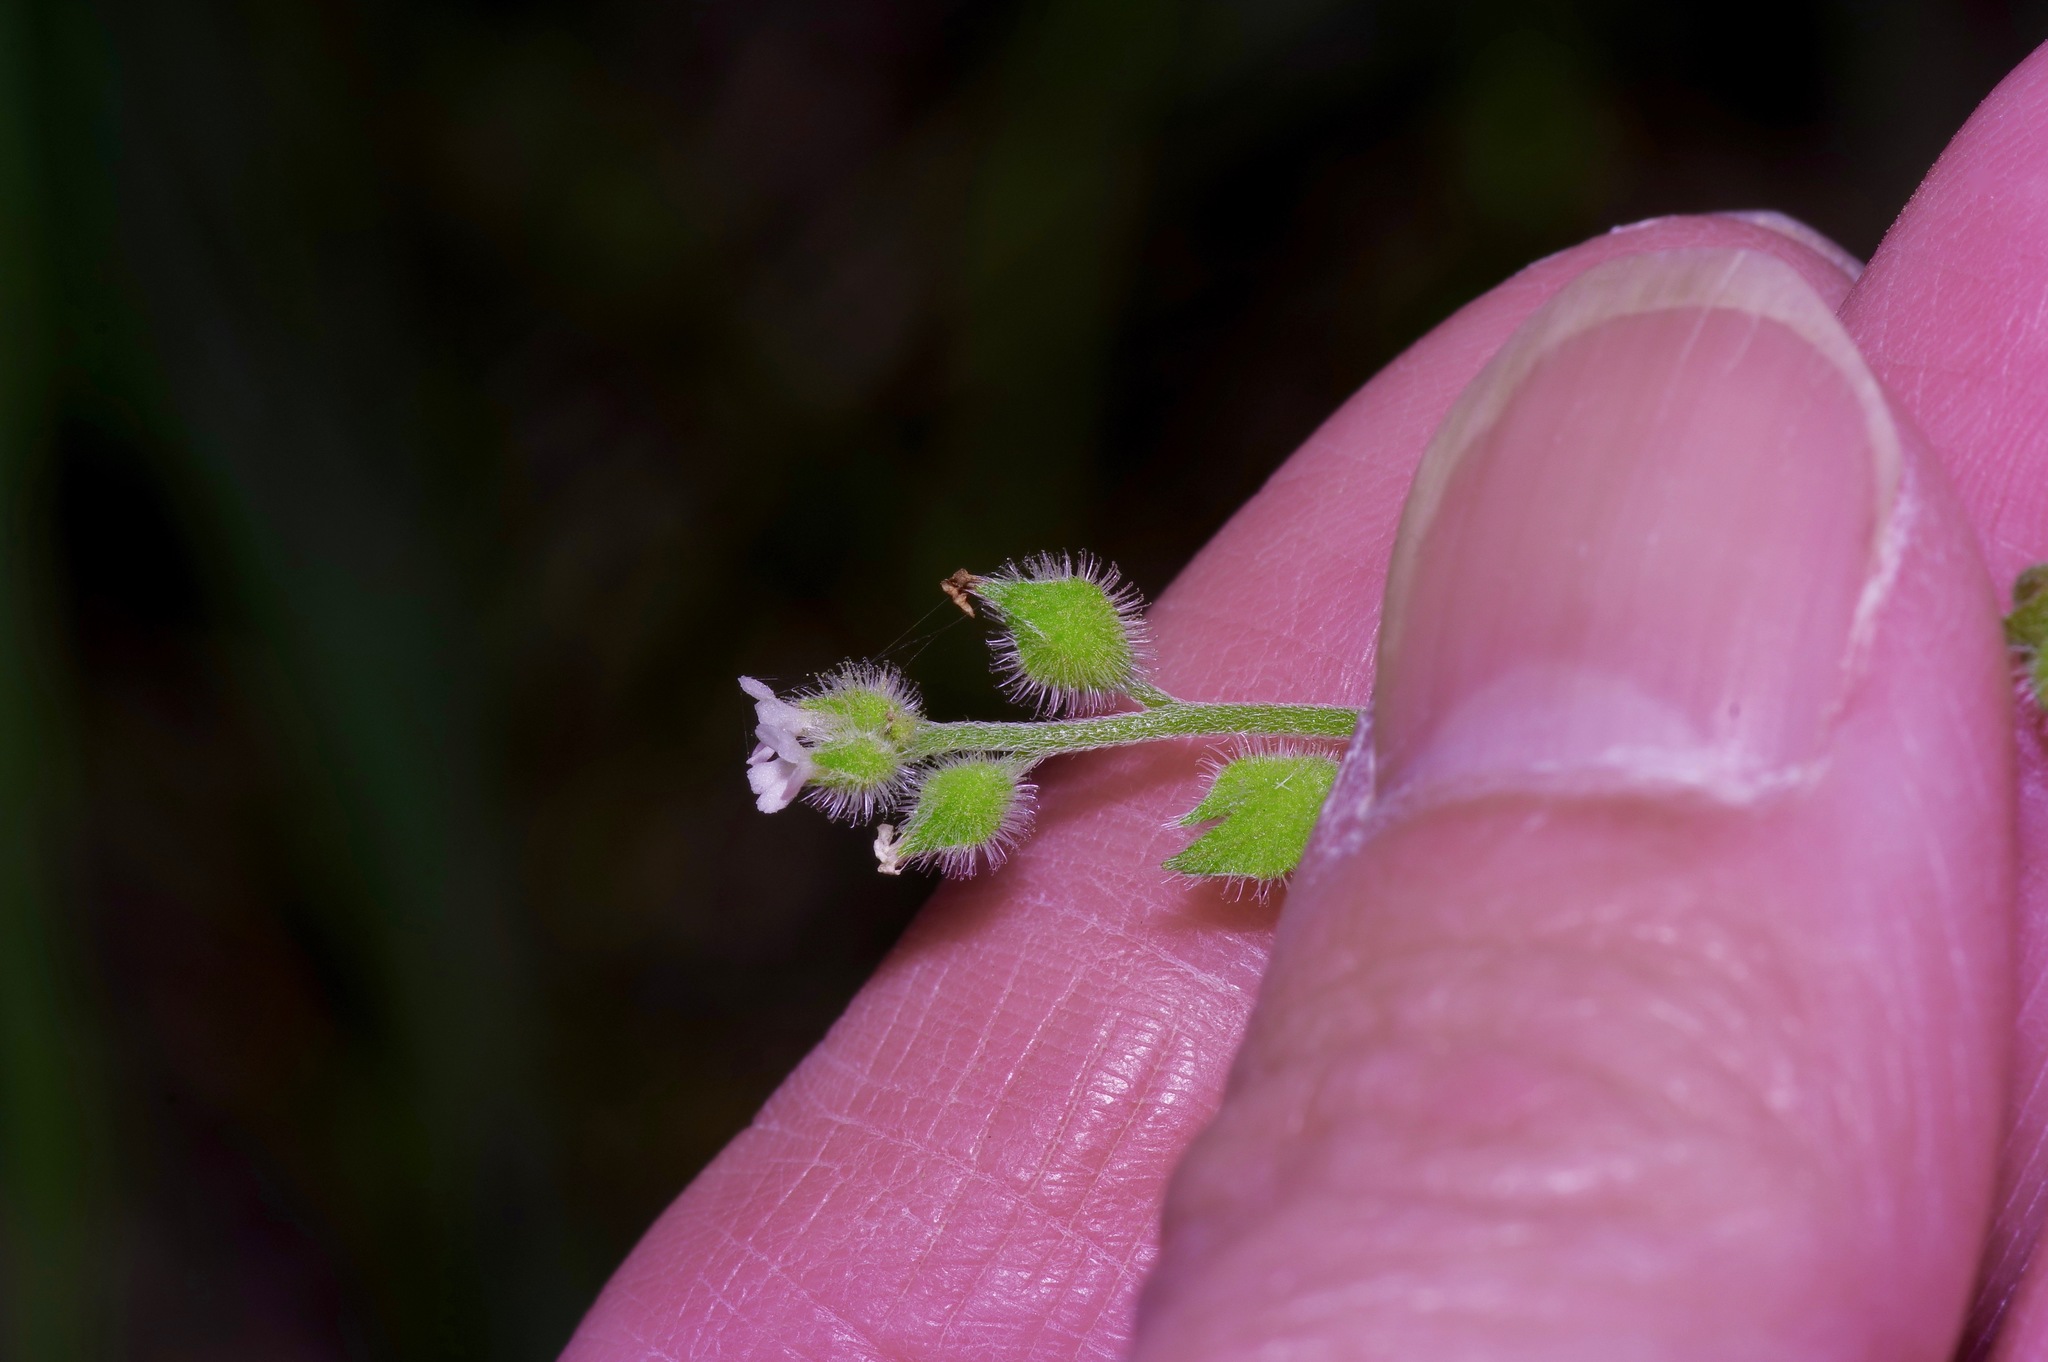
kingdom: Plantae
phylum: Tracheophyta
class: Magnoliopsida
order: Boraginales
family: Boraginaceae
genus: Myosotis
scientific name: Myosotis macrosperma
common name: Large-seed forget-me-not
